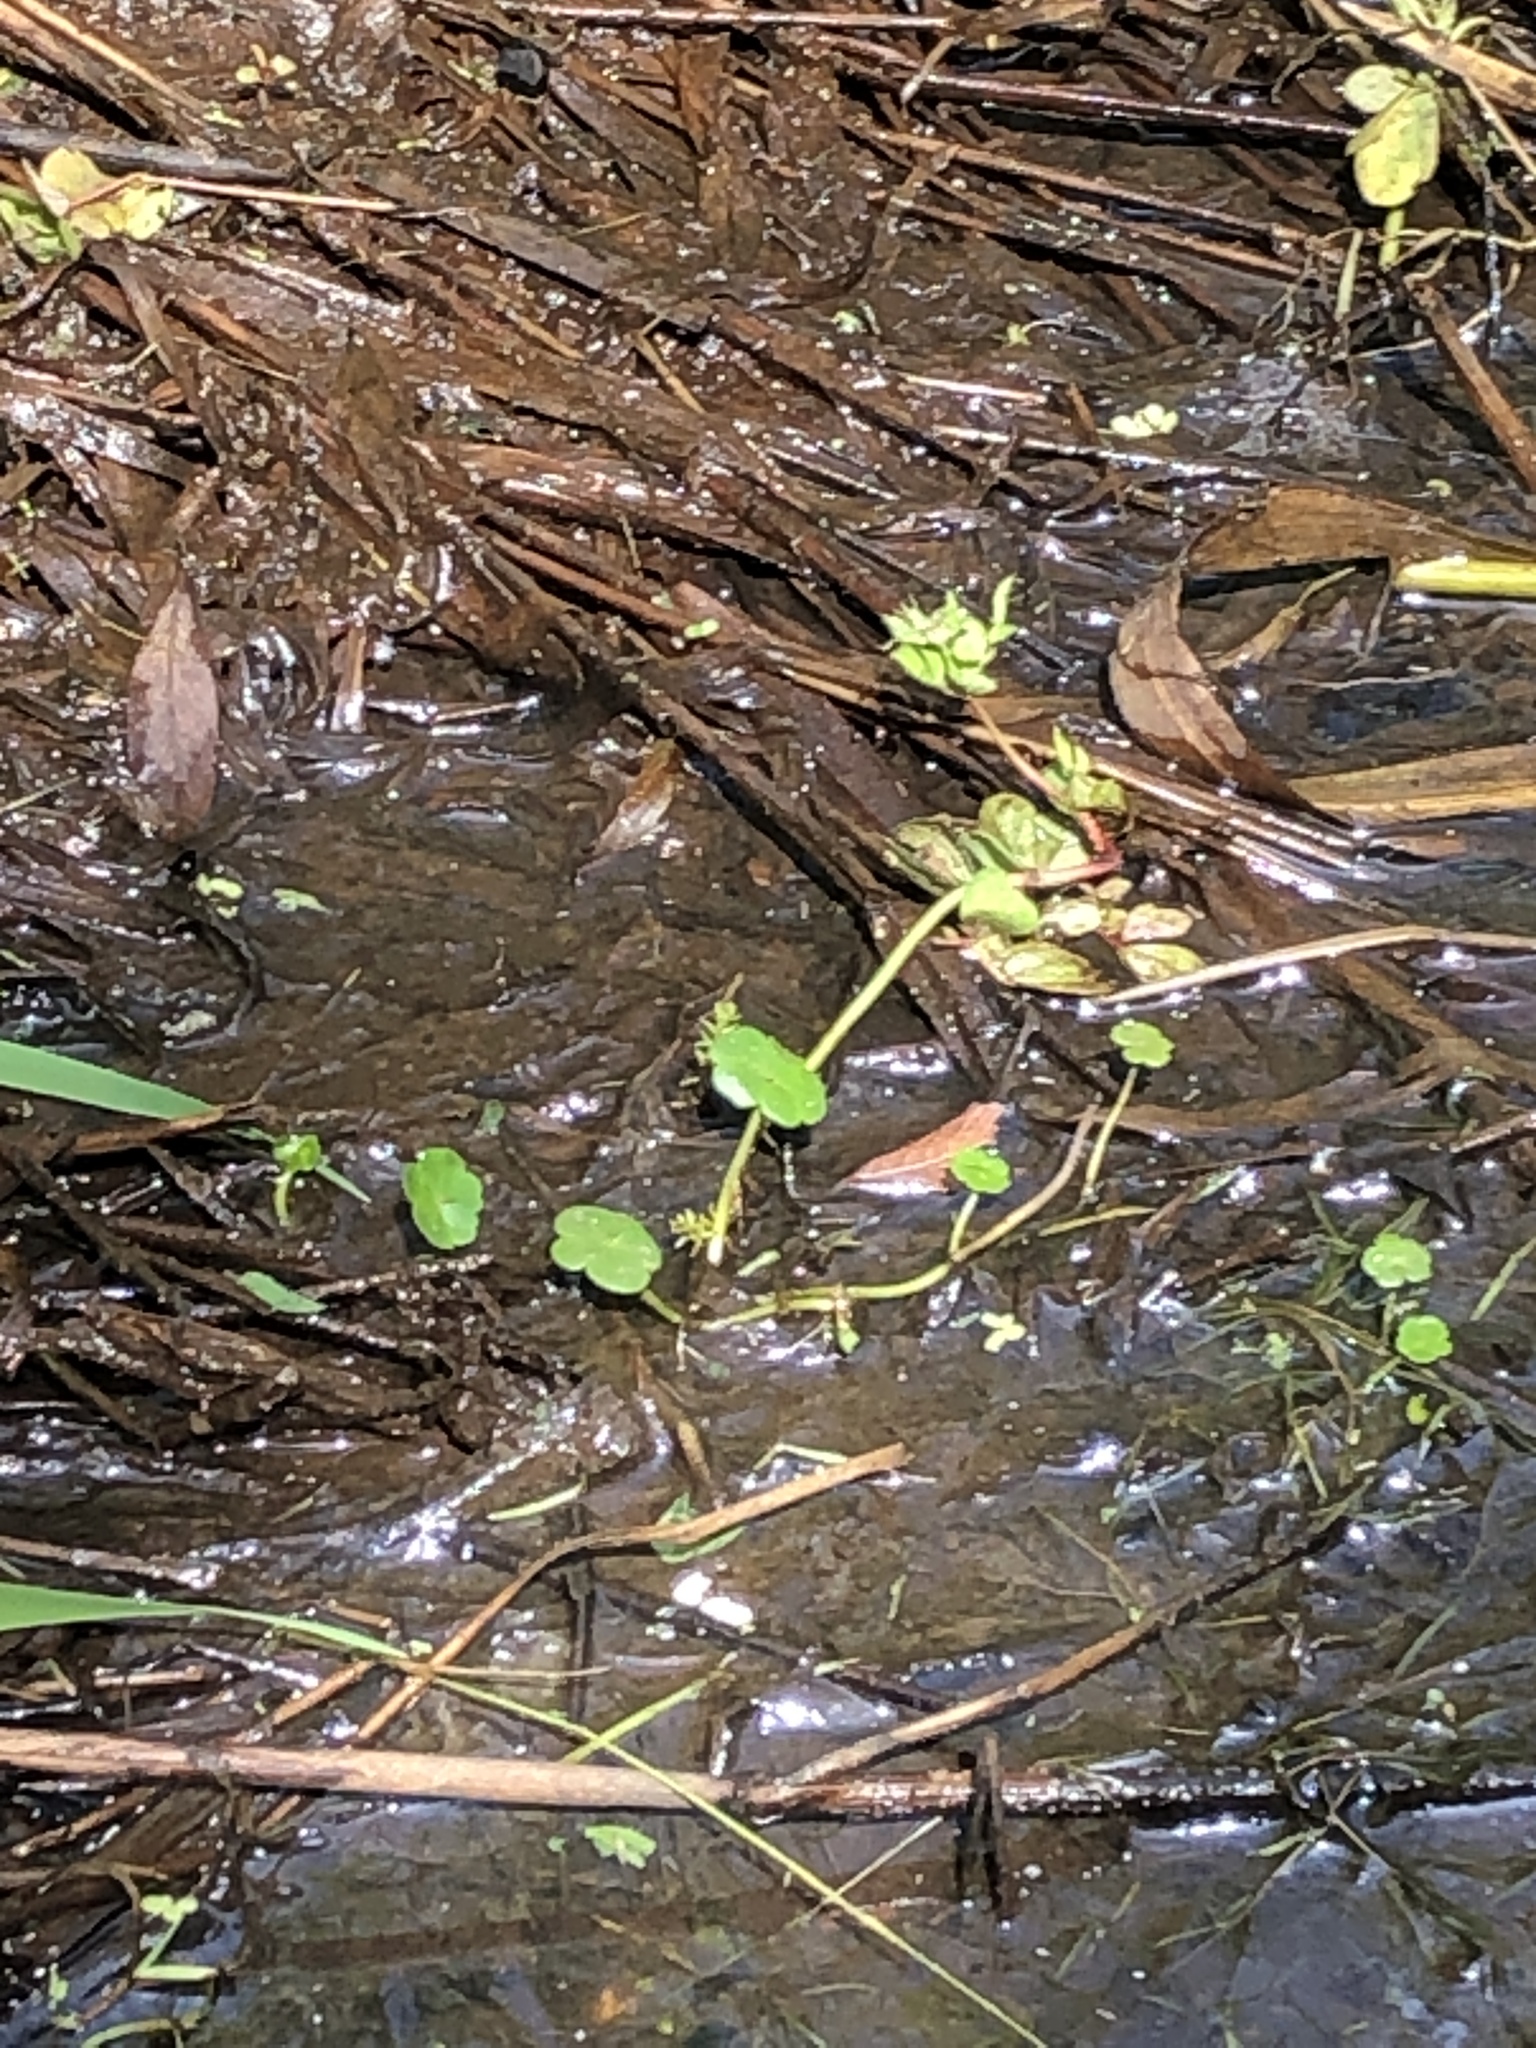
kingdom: Plantae
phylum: Tracheophyta
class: Magnoliopsida
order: Apiales
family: Araliaceae
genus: Hydrocotyle
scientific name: Hydrocotyle ranunculoides
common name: Floating pennywort
